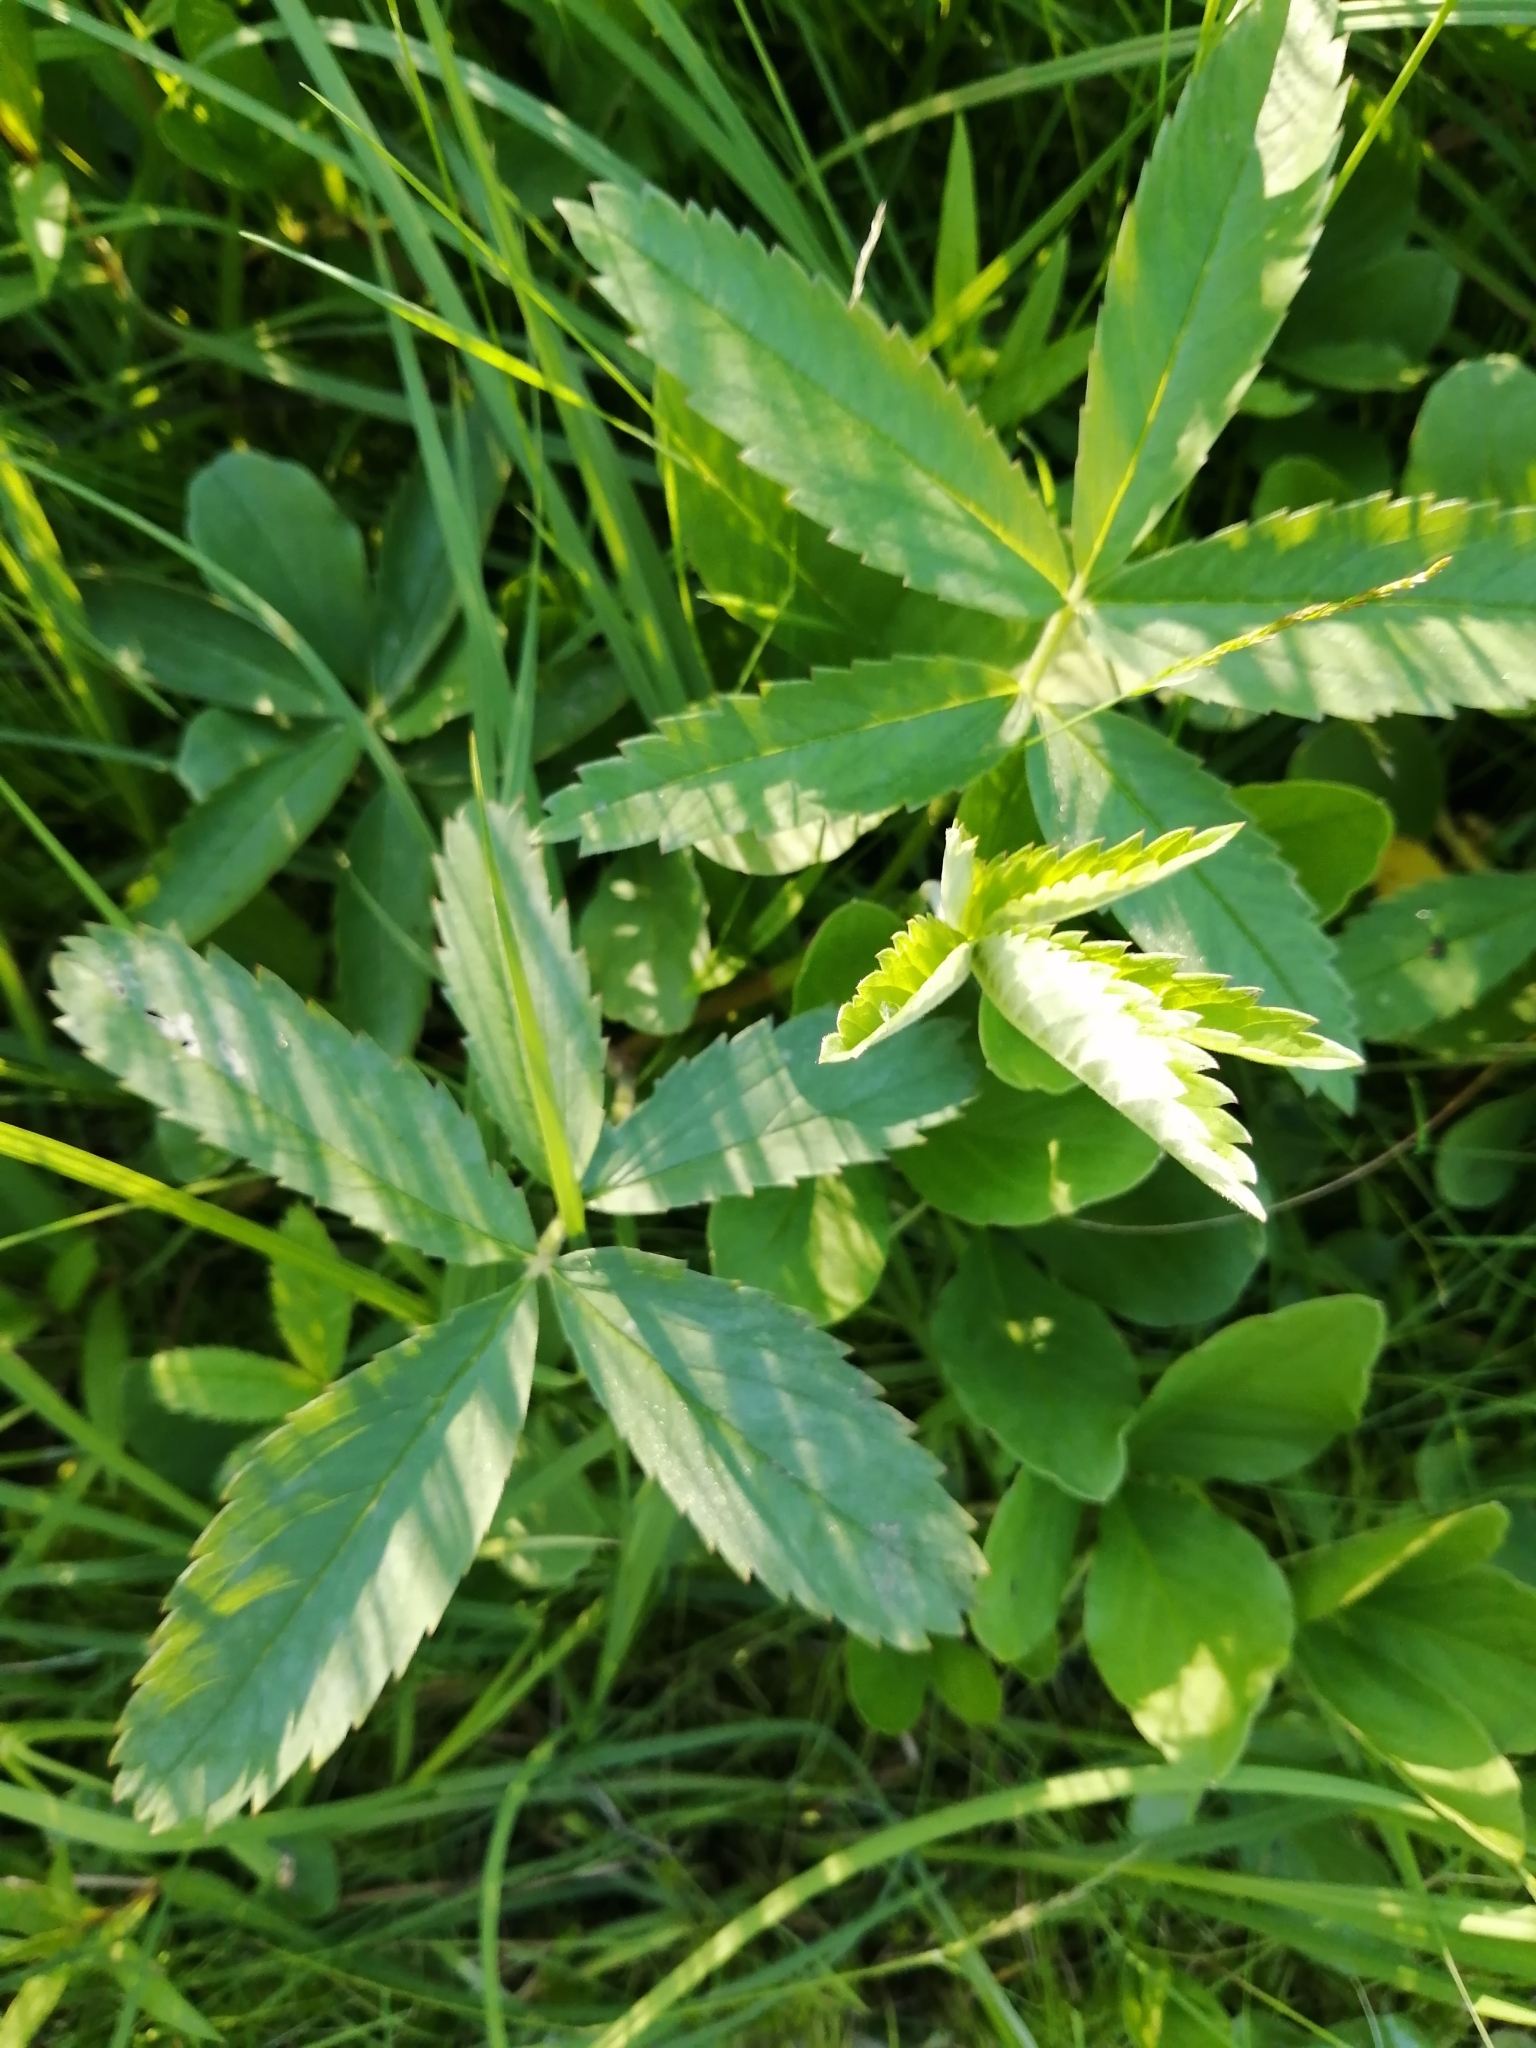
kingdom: Plantae
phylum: Tracheophyta
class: Magnoliopsida
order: Rosales
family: Rosaceae
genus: Comarum
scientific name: Comarum palustre
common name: Marsh cinquefoil
